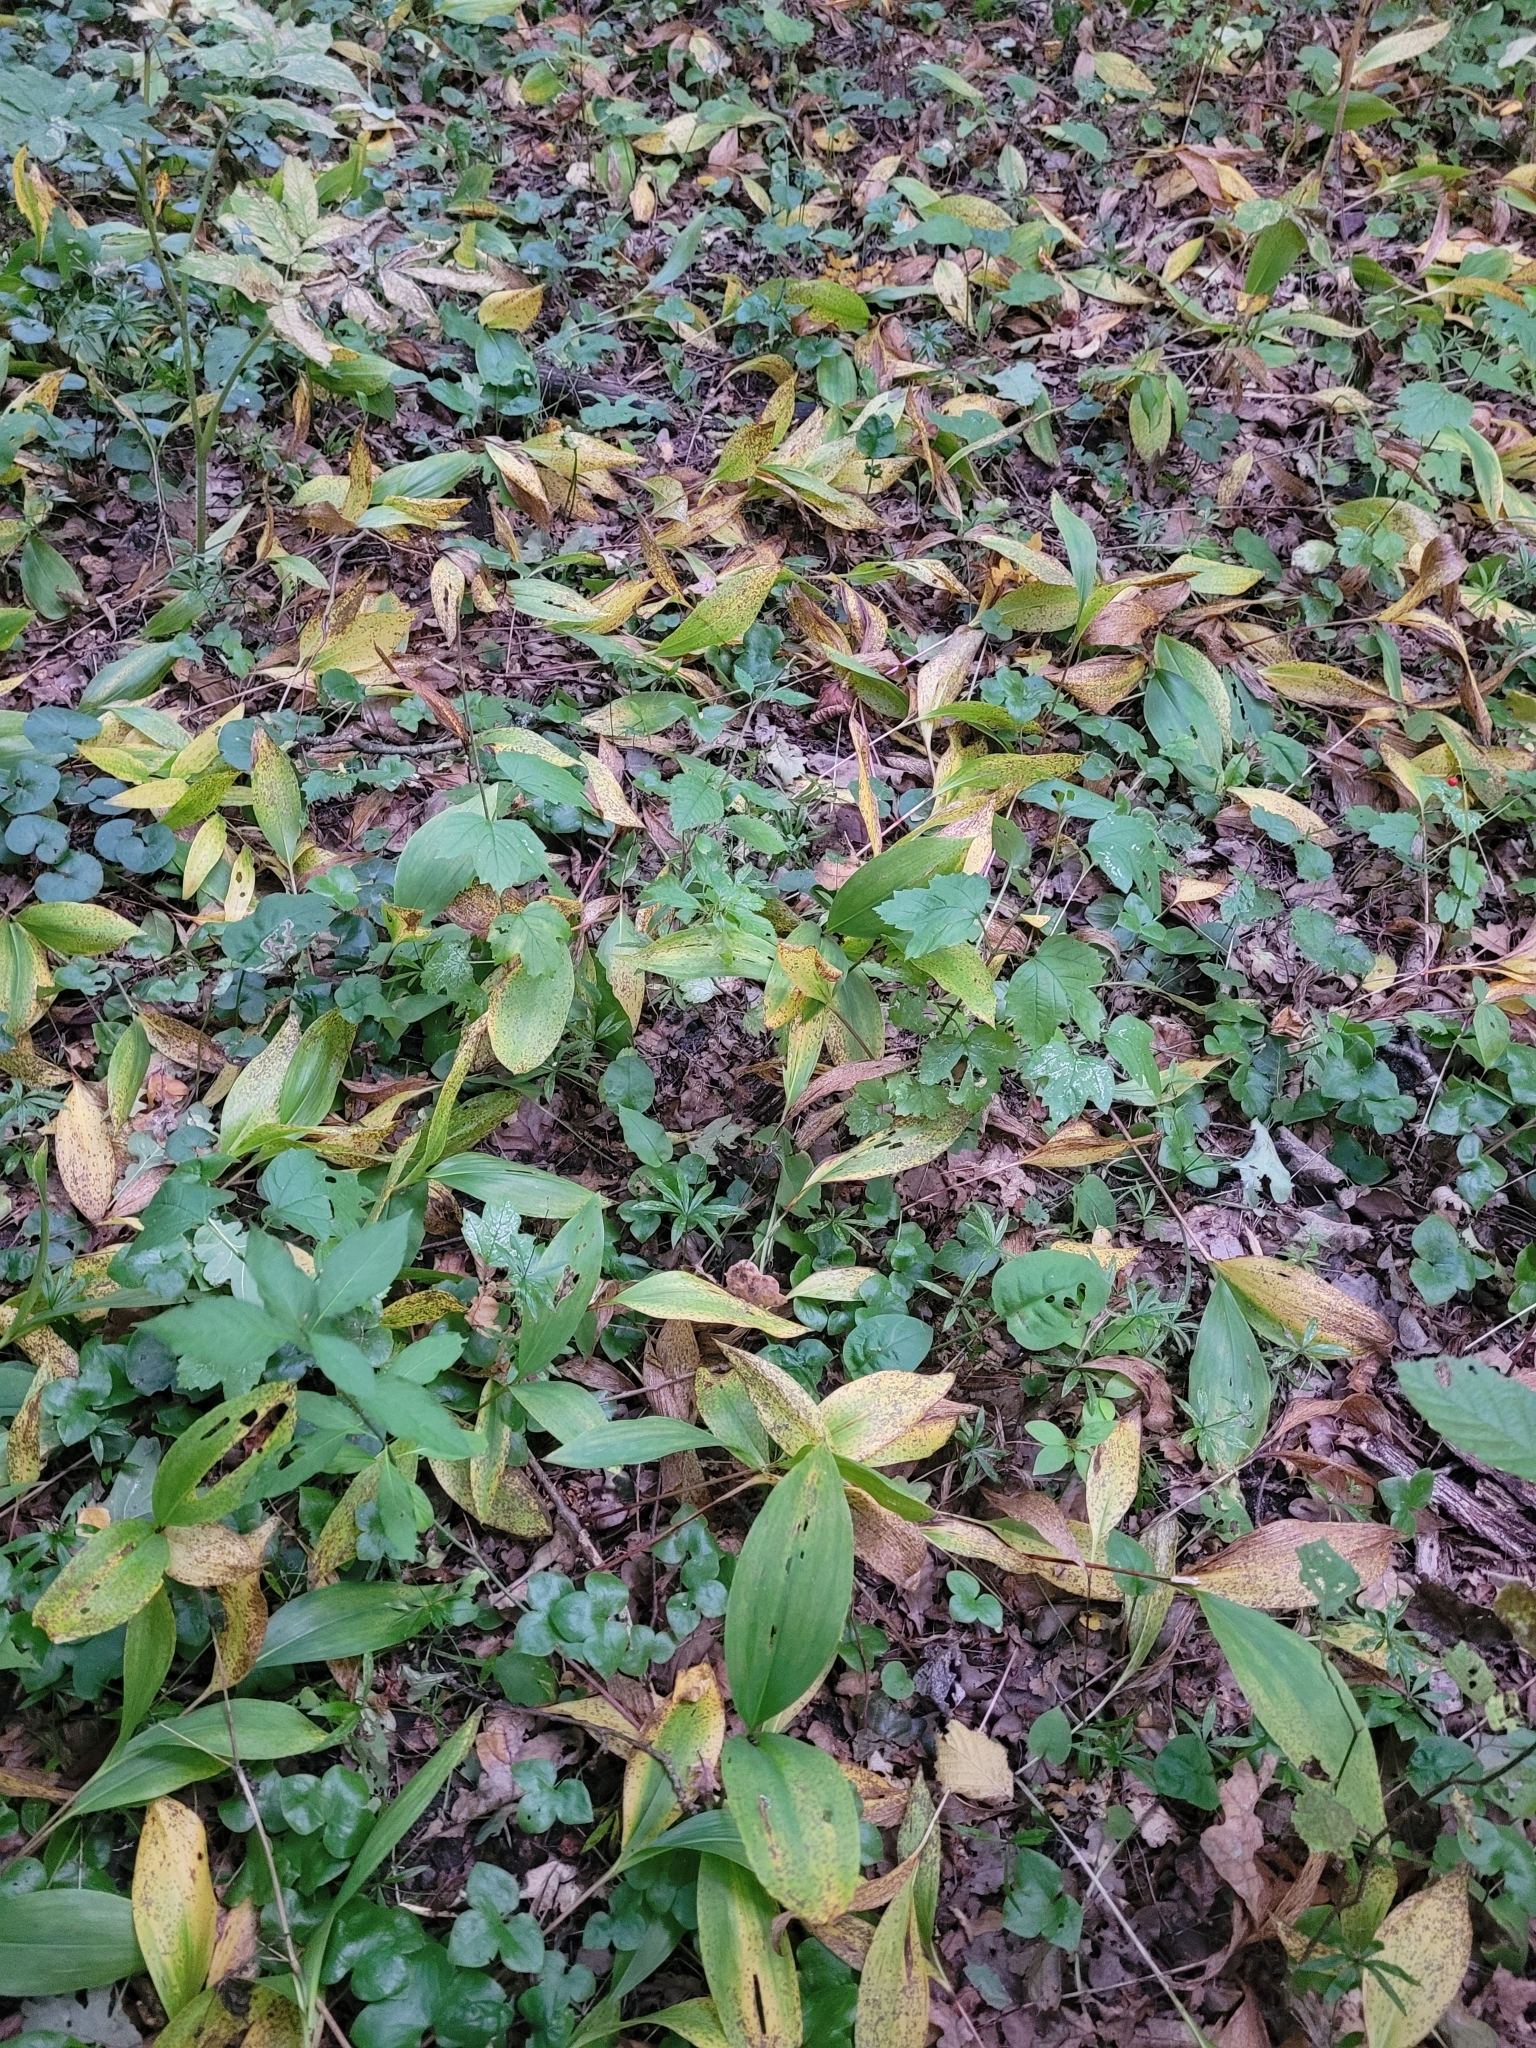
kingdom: Plantae
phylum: Tracheophyta
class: Liliopsida
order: Asparagales
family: Asparagaceae
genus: Convallaria
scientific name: Convallaria majalis
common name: Lily-of-the-valley
